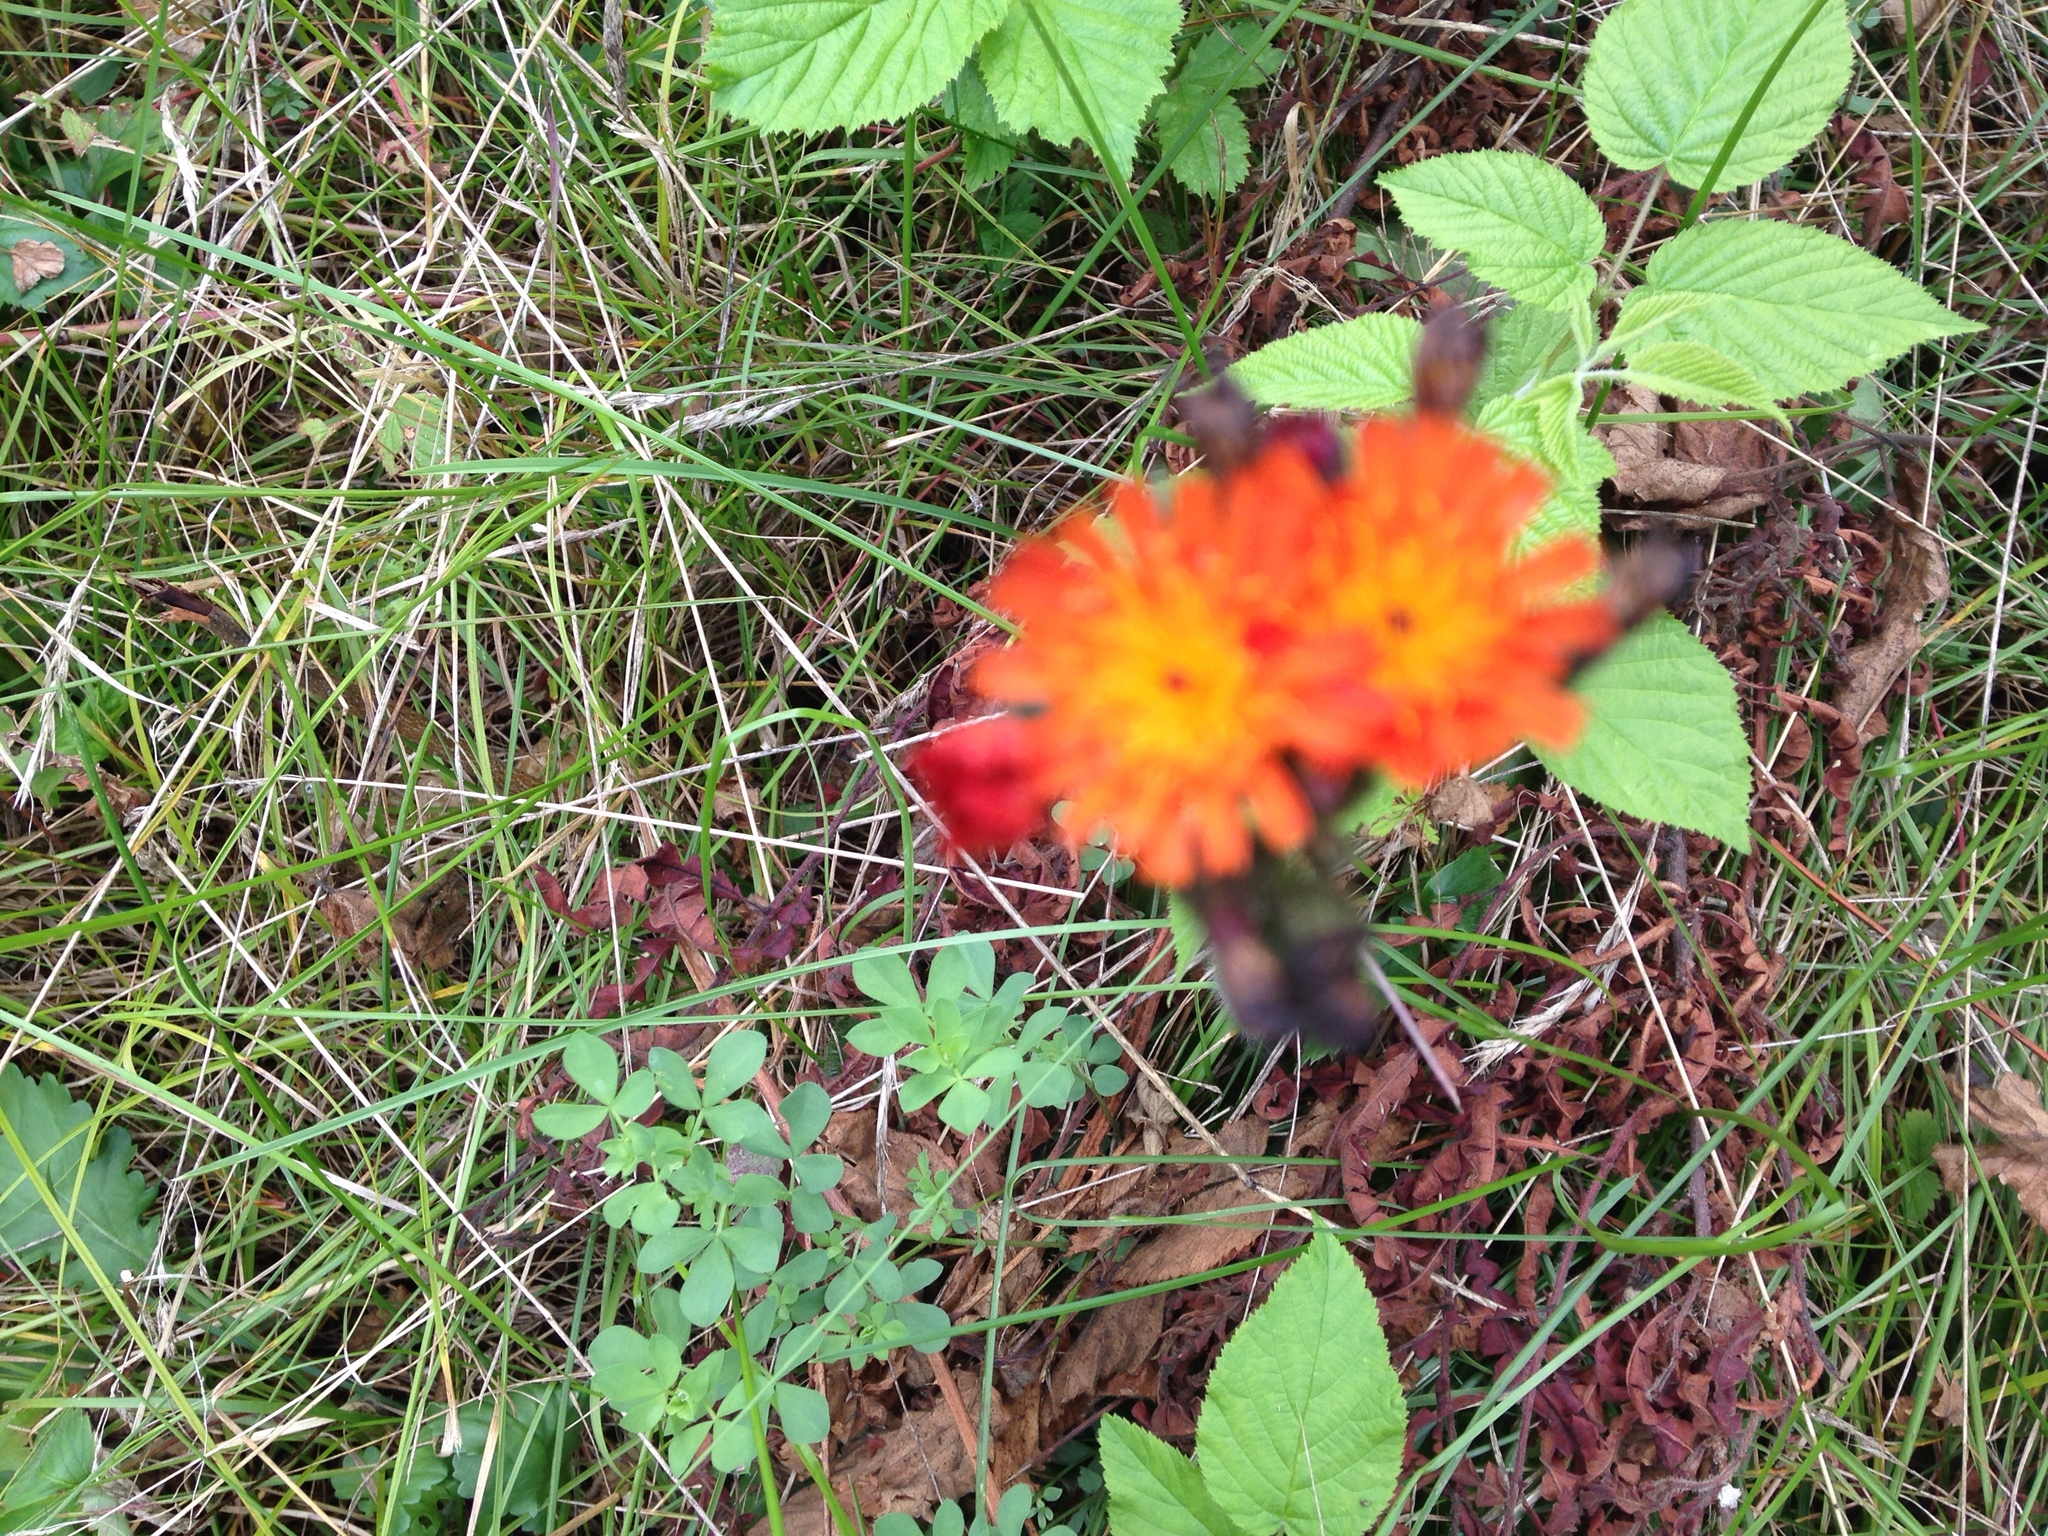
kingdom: Plantae
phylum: Tracheophyta
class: Magnoliopsida
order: Asterales
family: Asteraceae
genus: Pilosella
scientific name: Pilosella aurantiaca
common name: Fox-and-cubs
